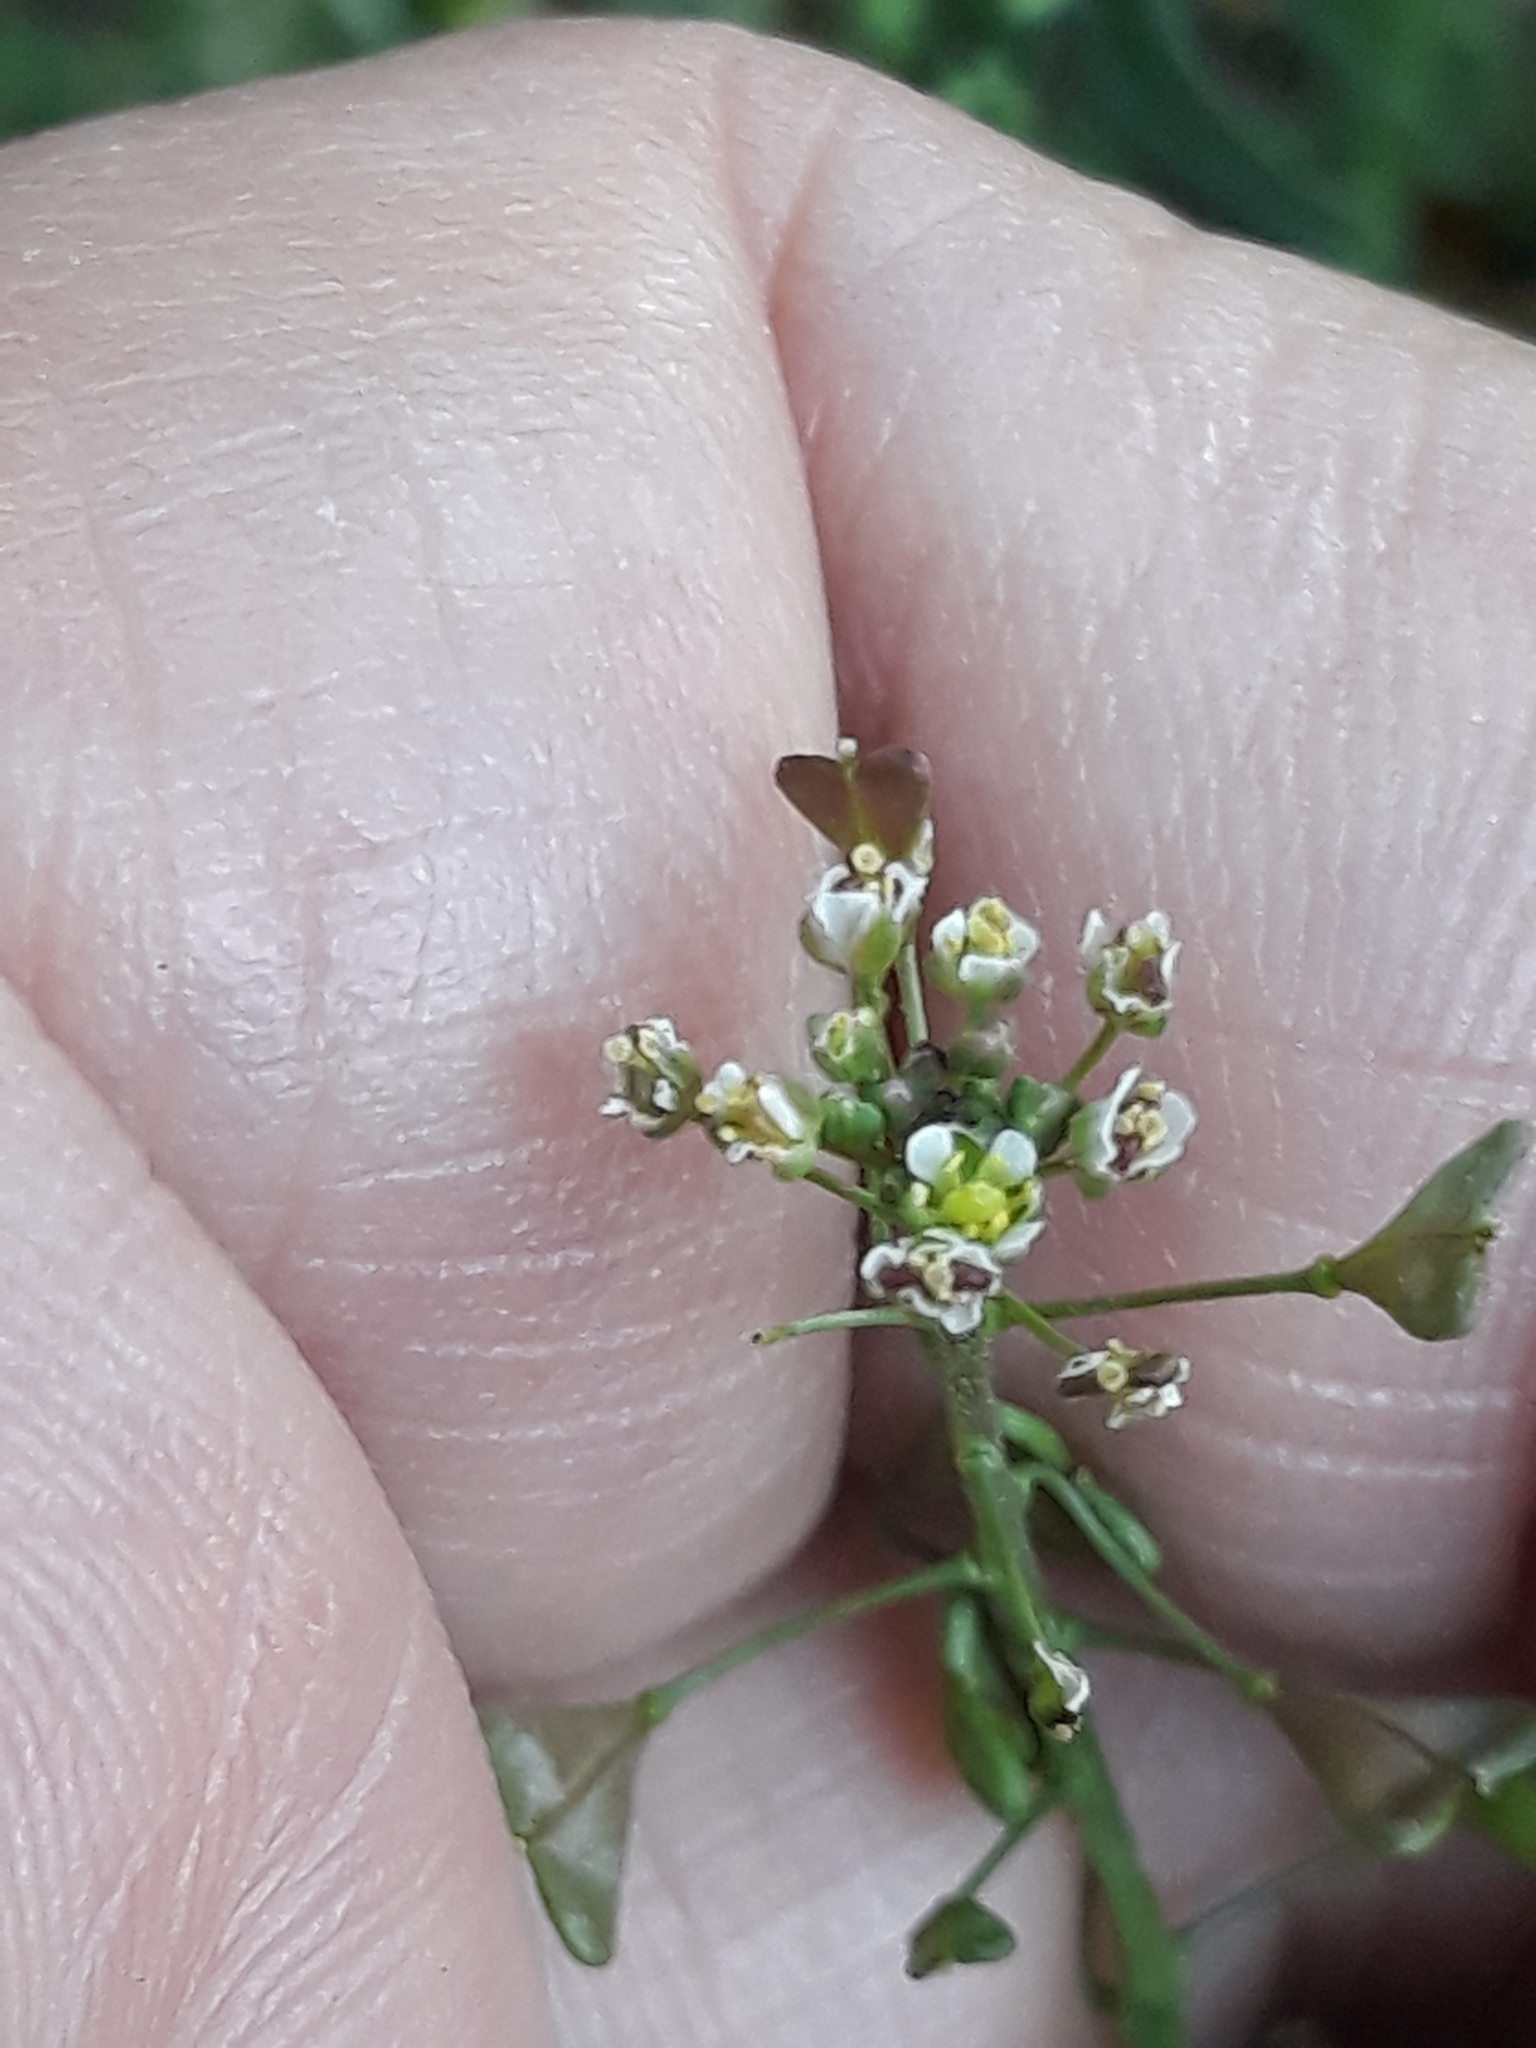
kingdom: Plantae
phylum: Tracheophyta
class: Magnoliopsida
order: Brassicales
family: Brassicaceae
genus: Capsella
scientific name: Capsella bursa-pastoris
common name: Shepherd's purse
